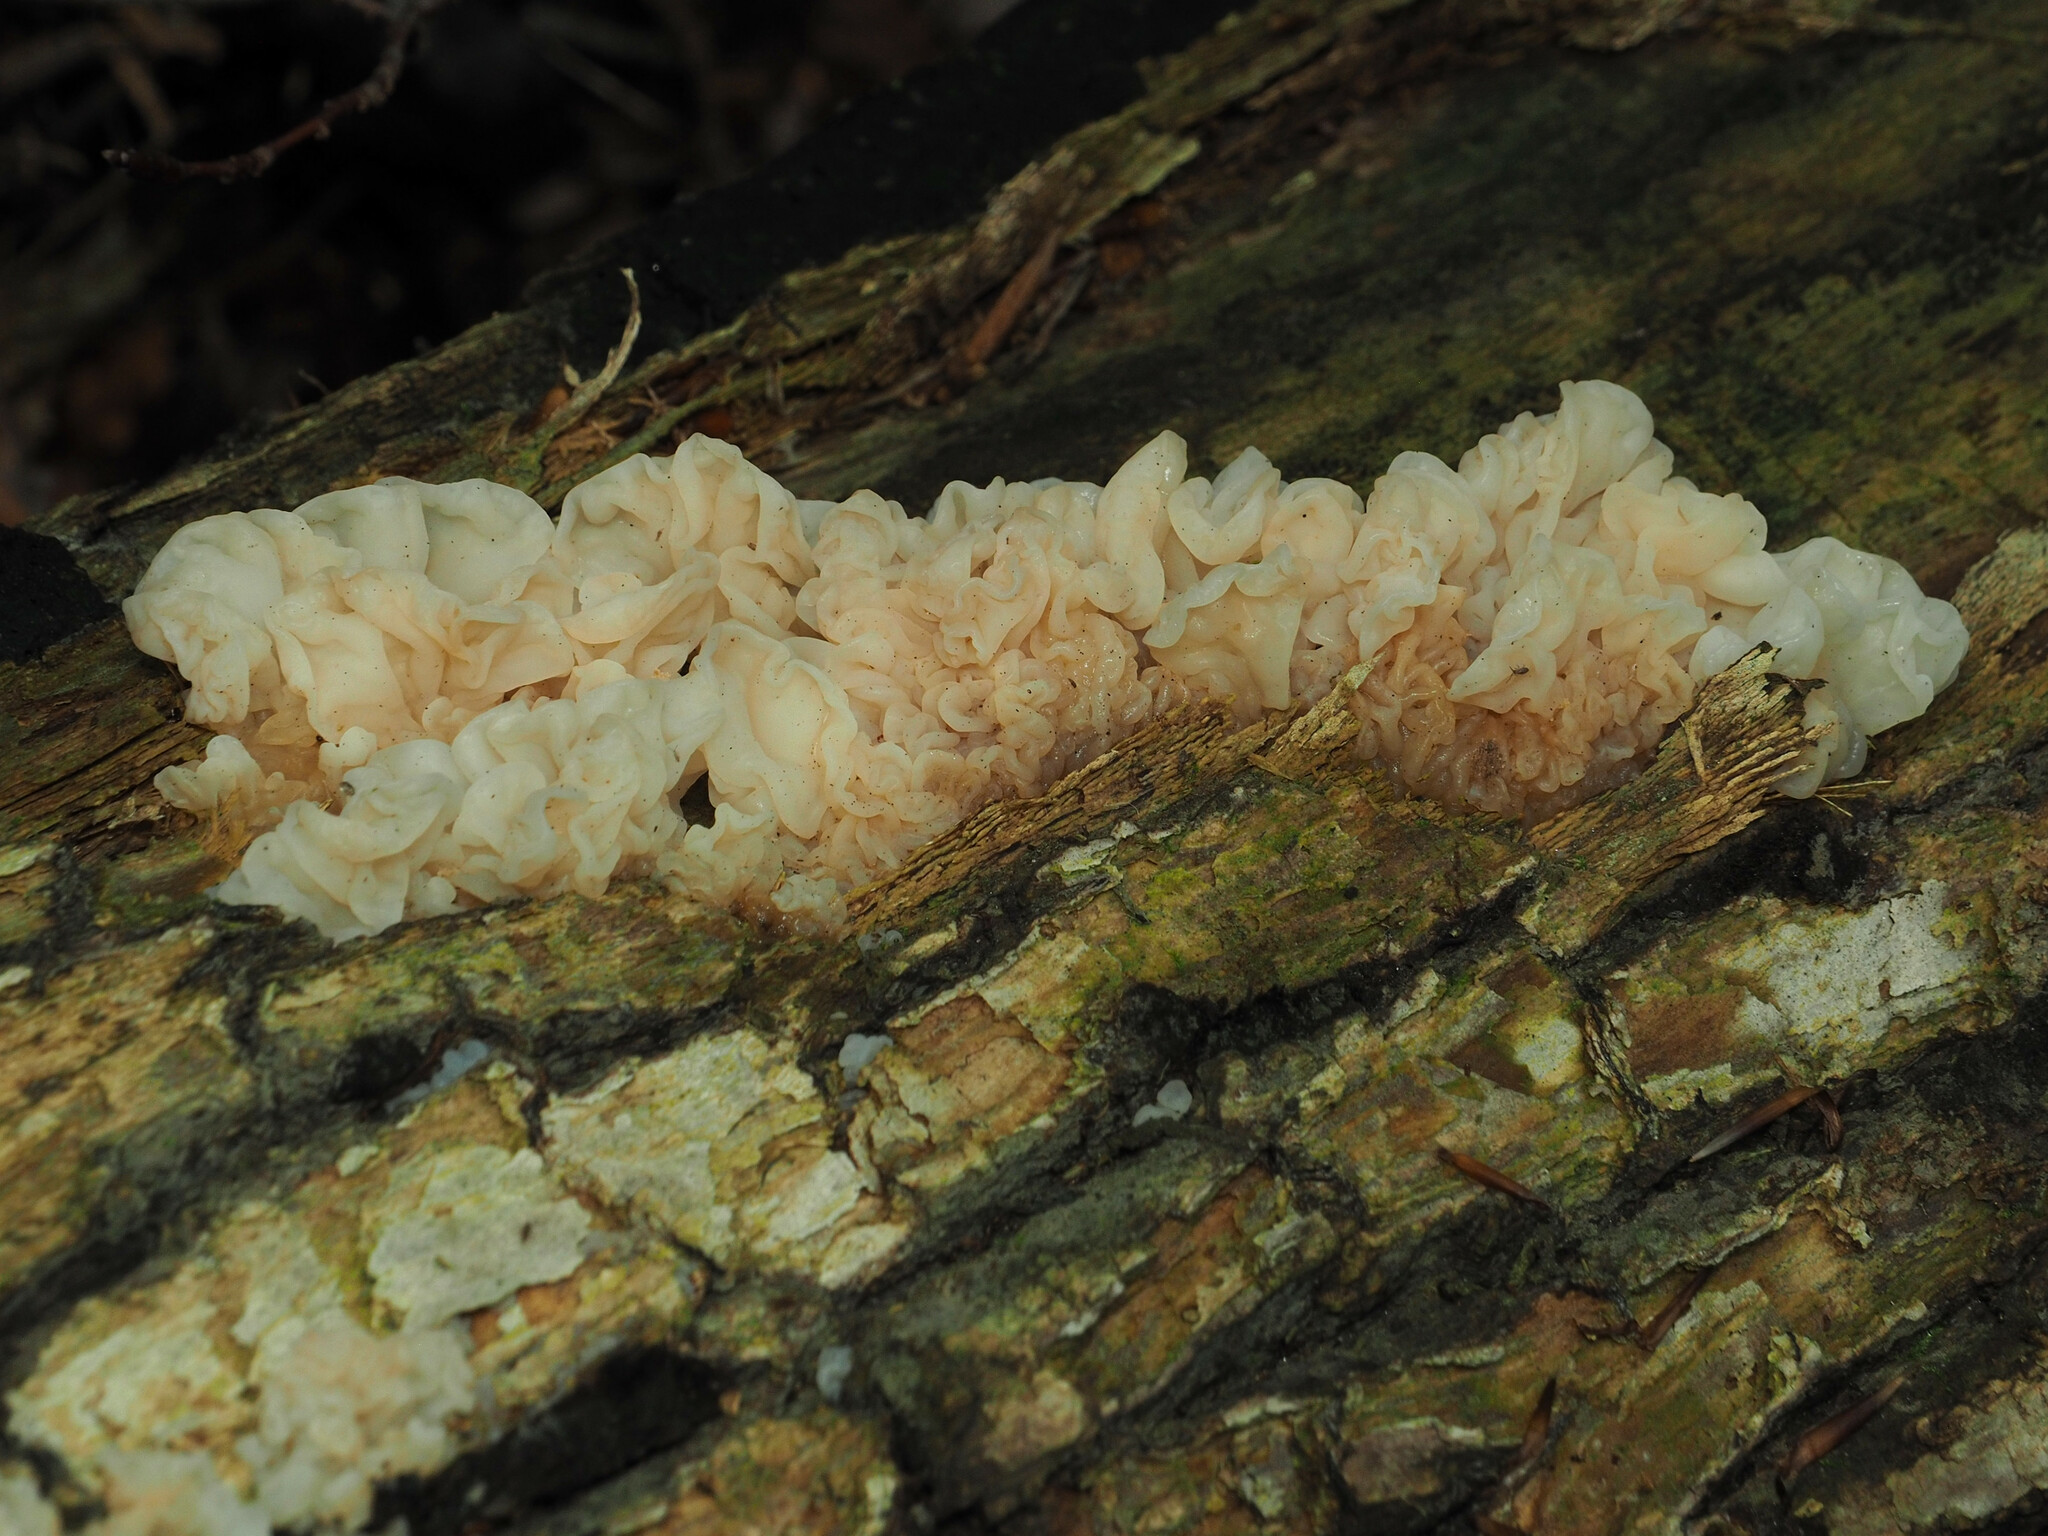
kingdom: Fungi
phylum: Basidiomycota
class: Agaricomycetes
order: Auriculariales
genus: Ductifera
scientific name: Ductifera pululahuana
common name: White jelly fungus
